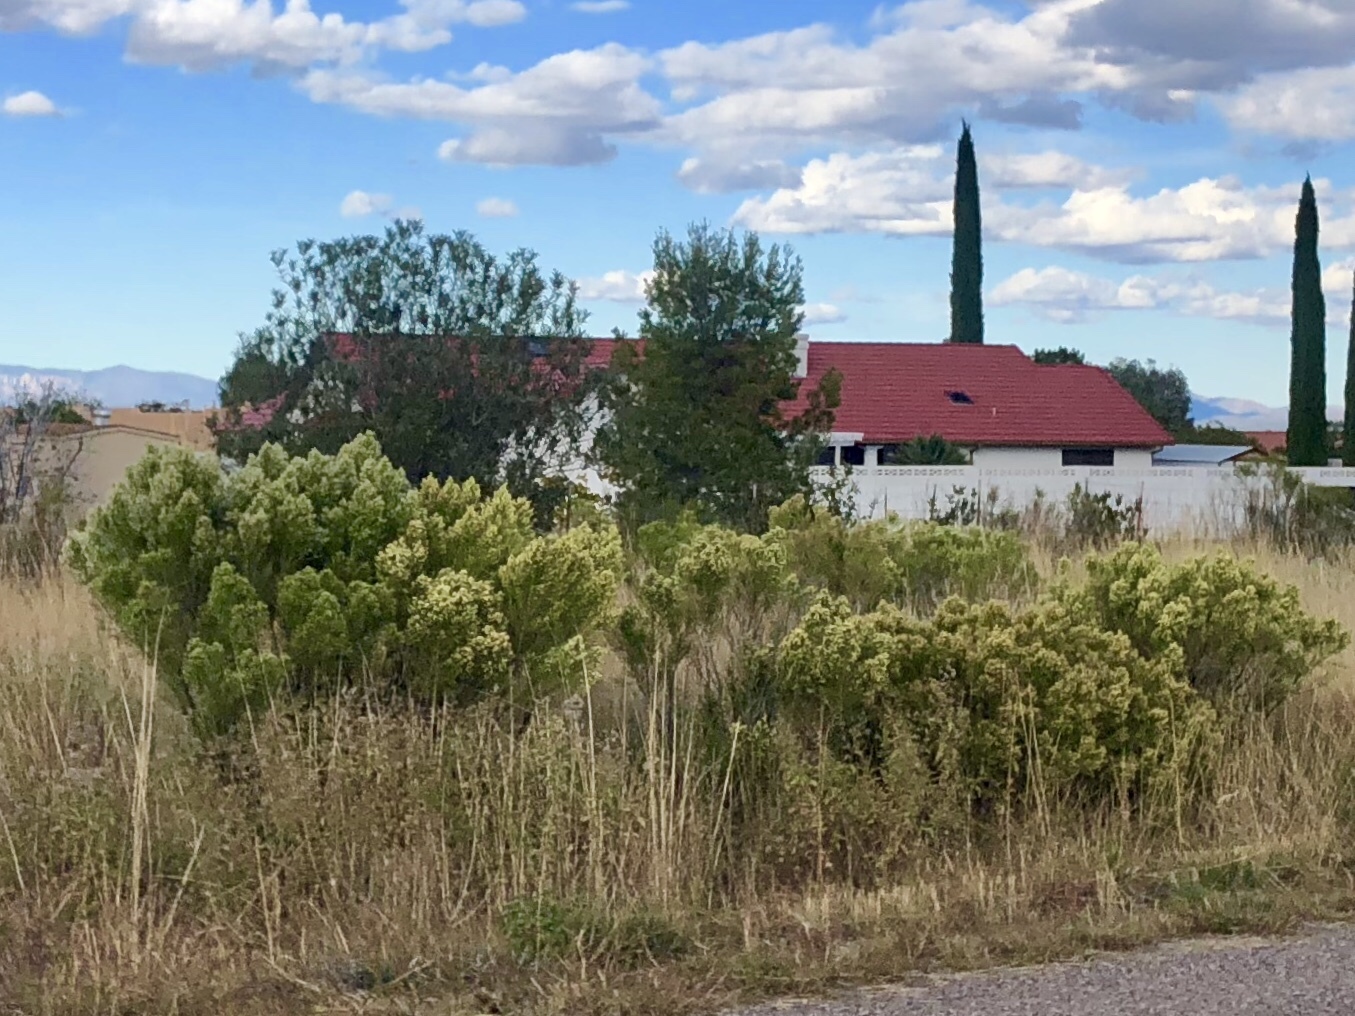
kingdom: Plantae
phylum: Tracheophyta
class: Magnoliopsida
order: Asterales
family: Asteraceae
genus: Baccharis
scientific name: Baccharis sarothroides
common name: Desert-broom
